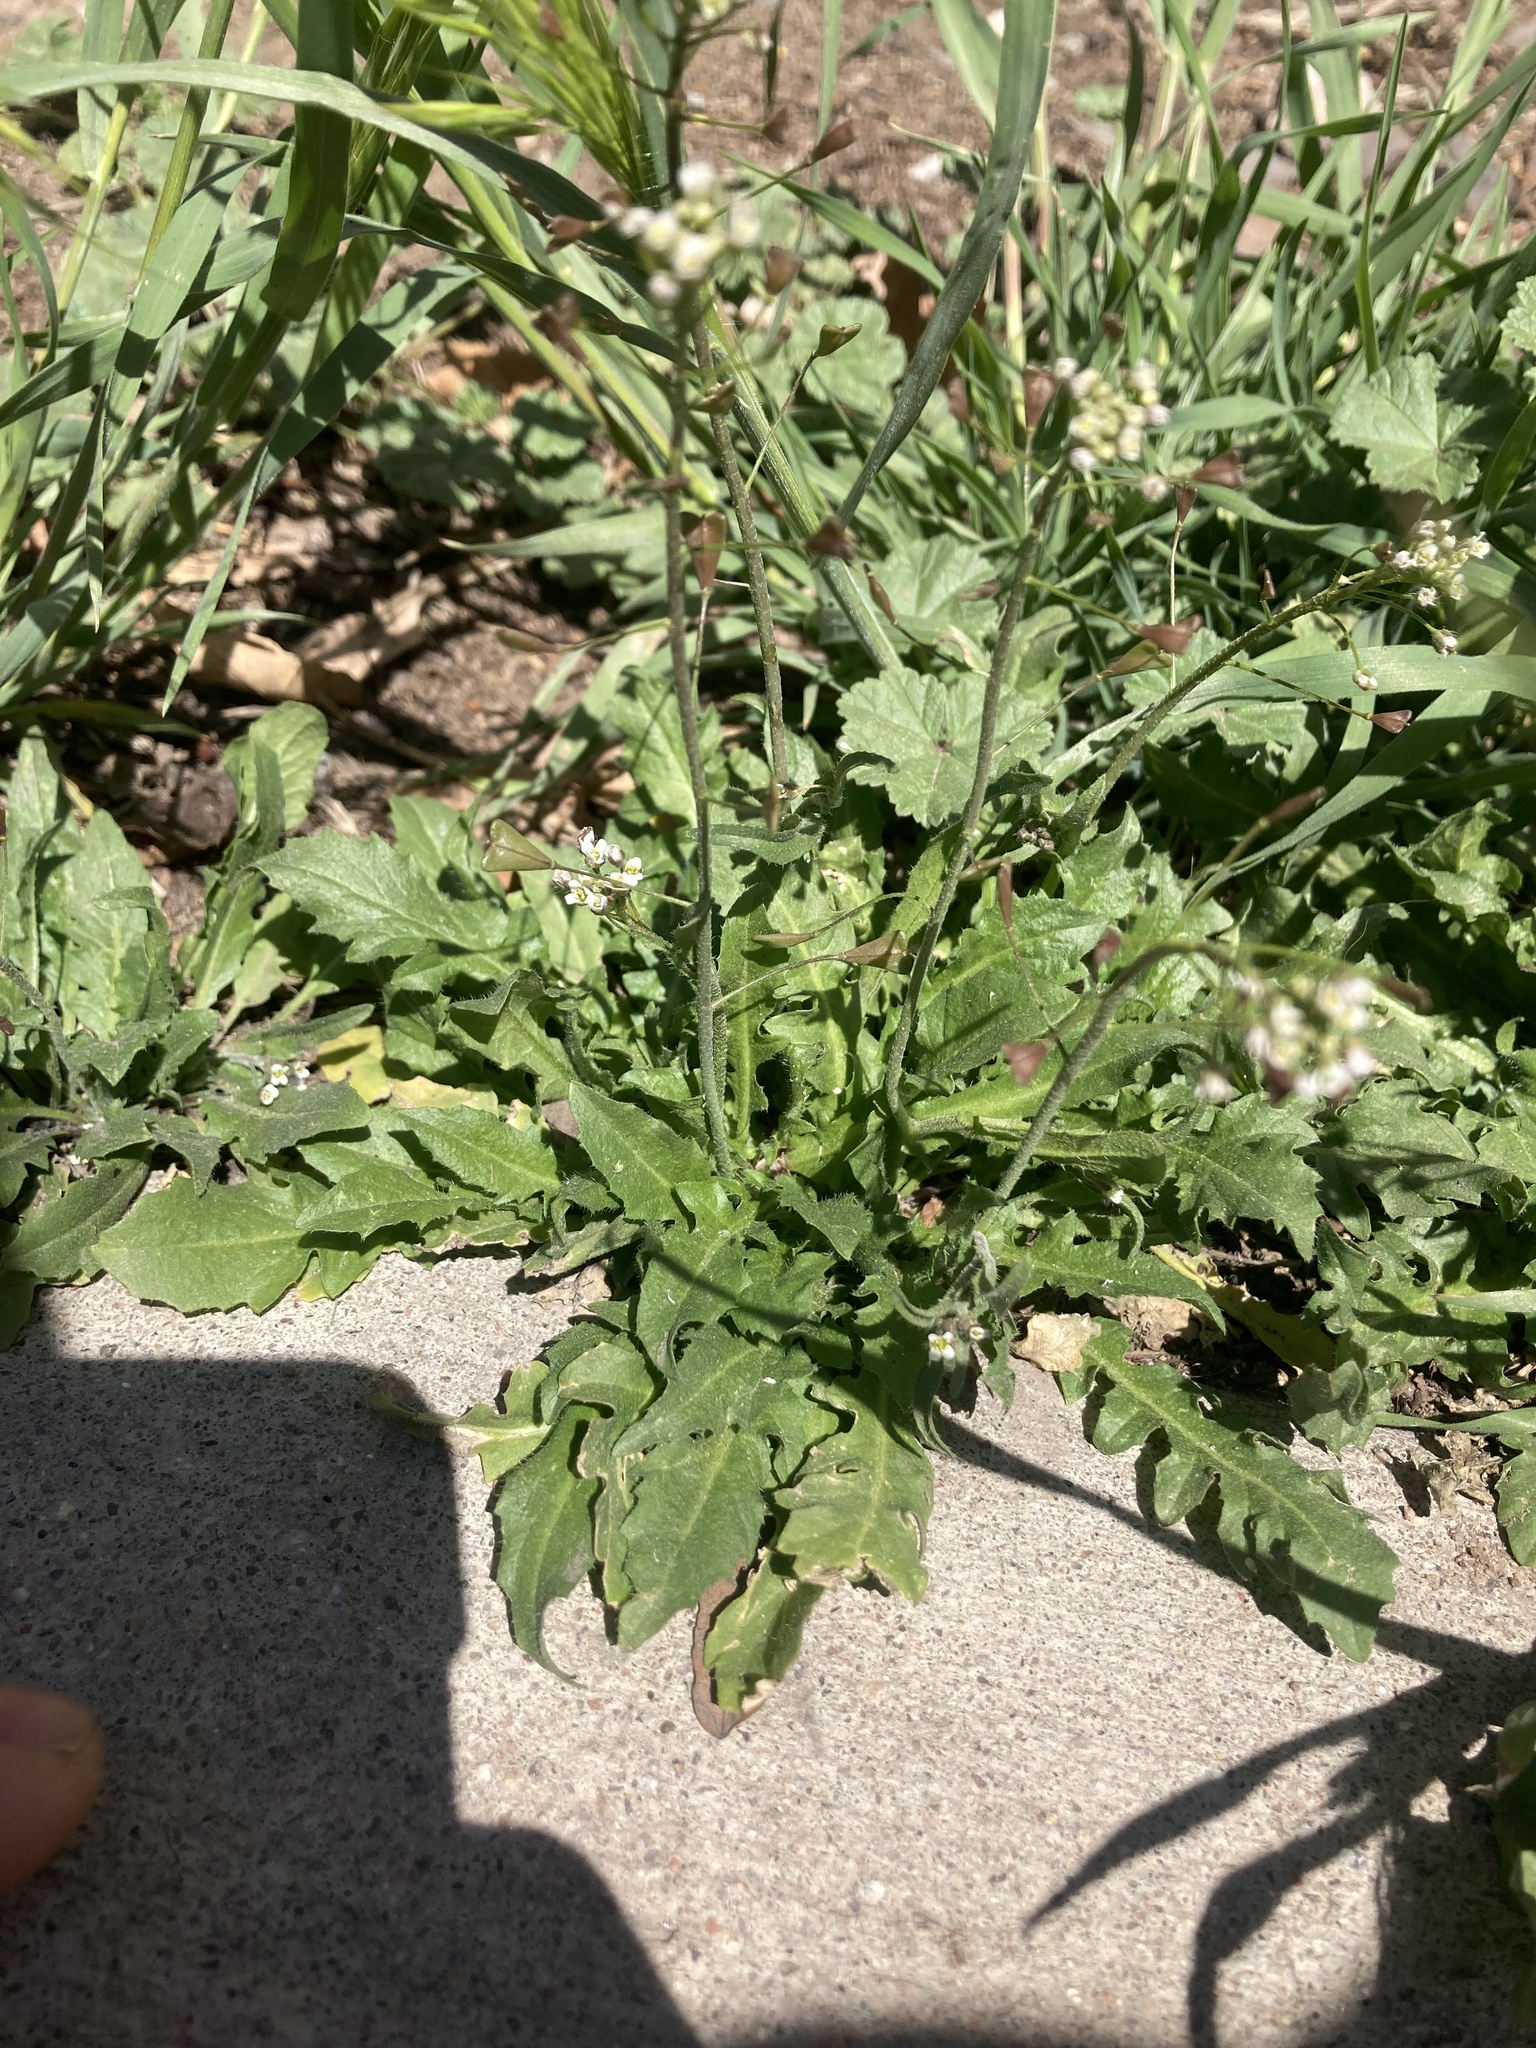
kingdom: Plantae
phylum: Tracheophyta
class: Magnoliopsida
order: Brassicales
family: Brassicaceae
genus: Capsella
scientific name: Capsella bursa-pastoris
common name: Shepherd's purse
